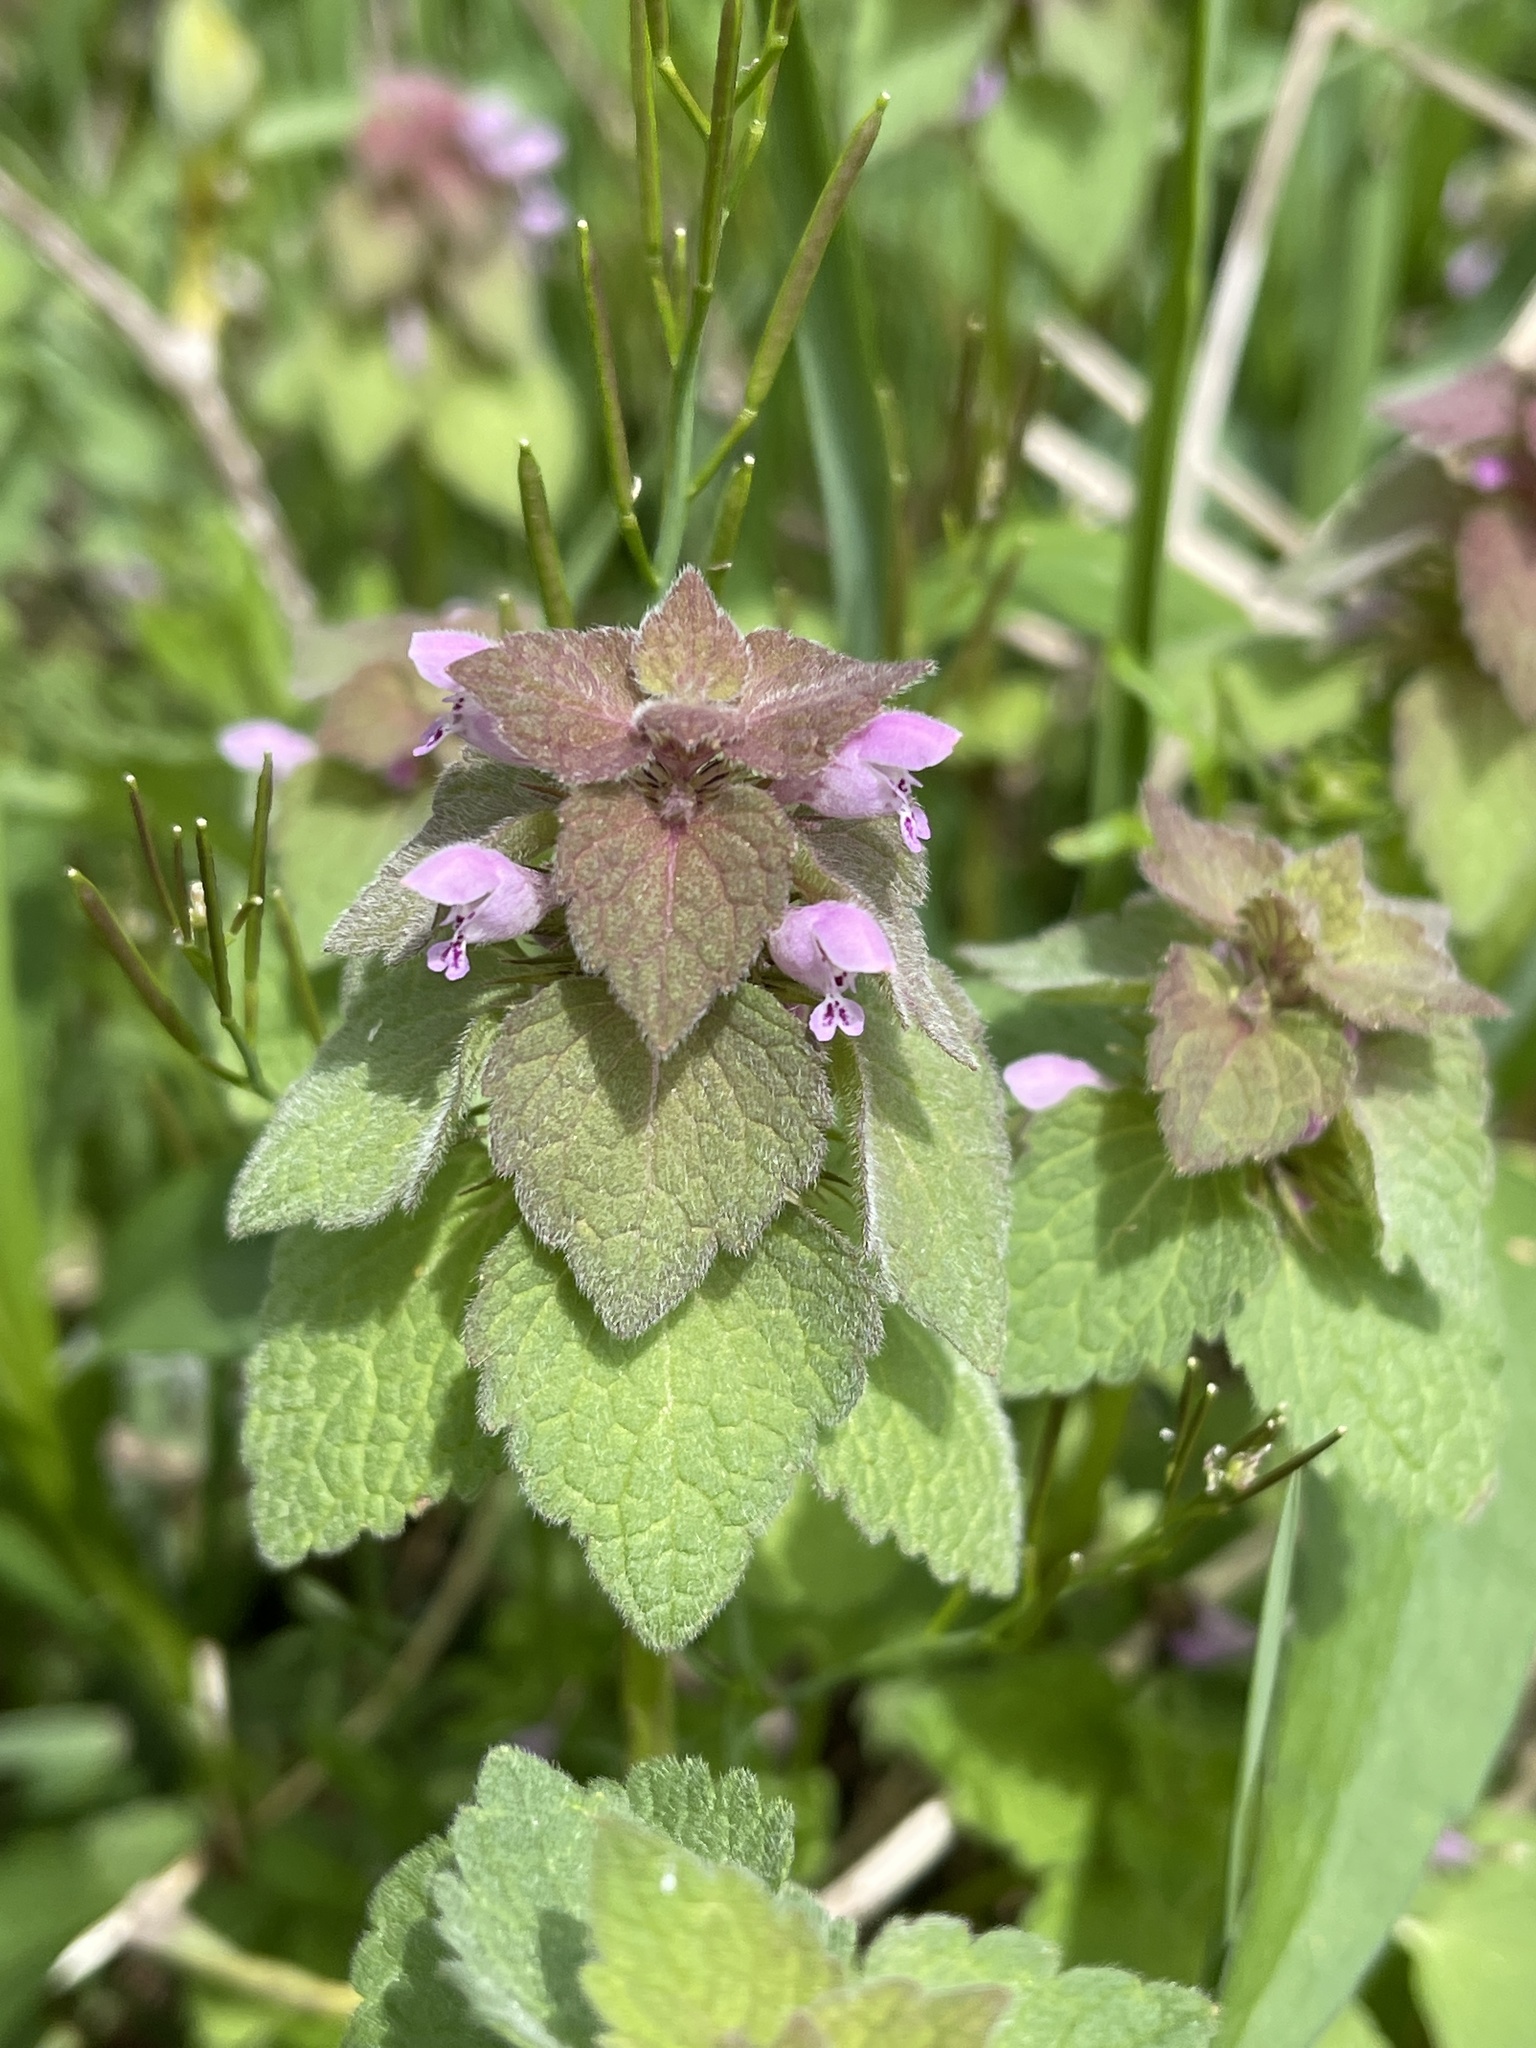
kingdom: Plantae
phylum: Tracheophyta
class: Magnoliopsida
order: Lamiales
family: Lamiaceae
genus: Lamium
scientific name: Lamium purpureum
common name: Red dead-nettle
